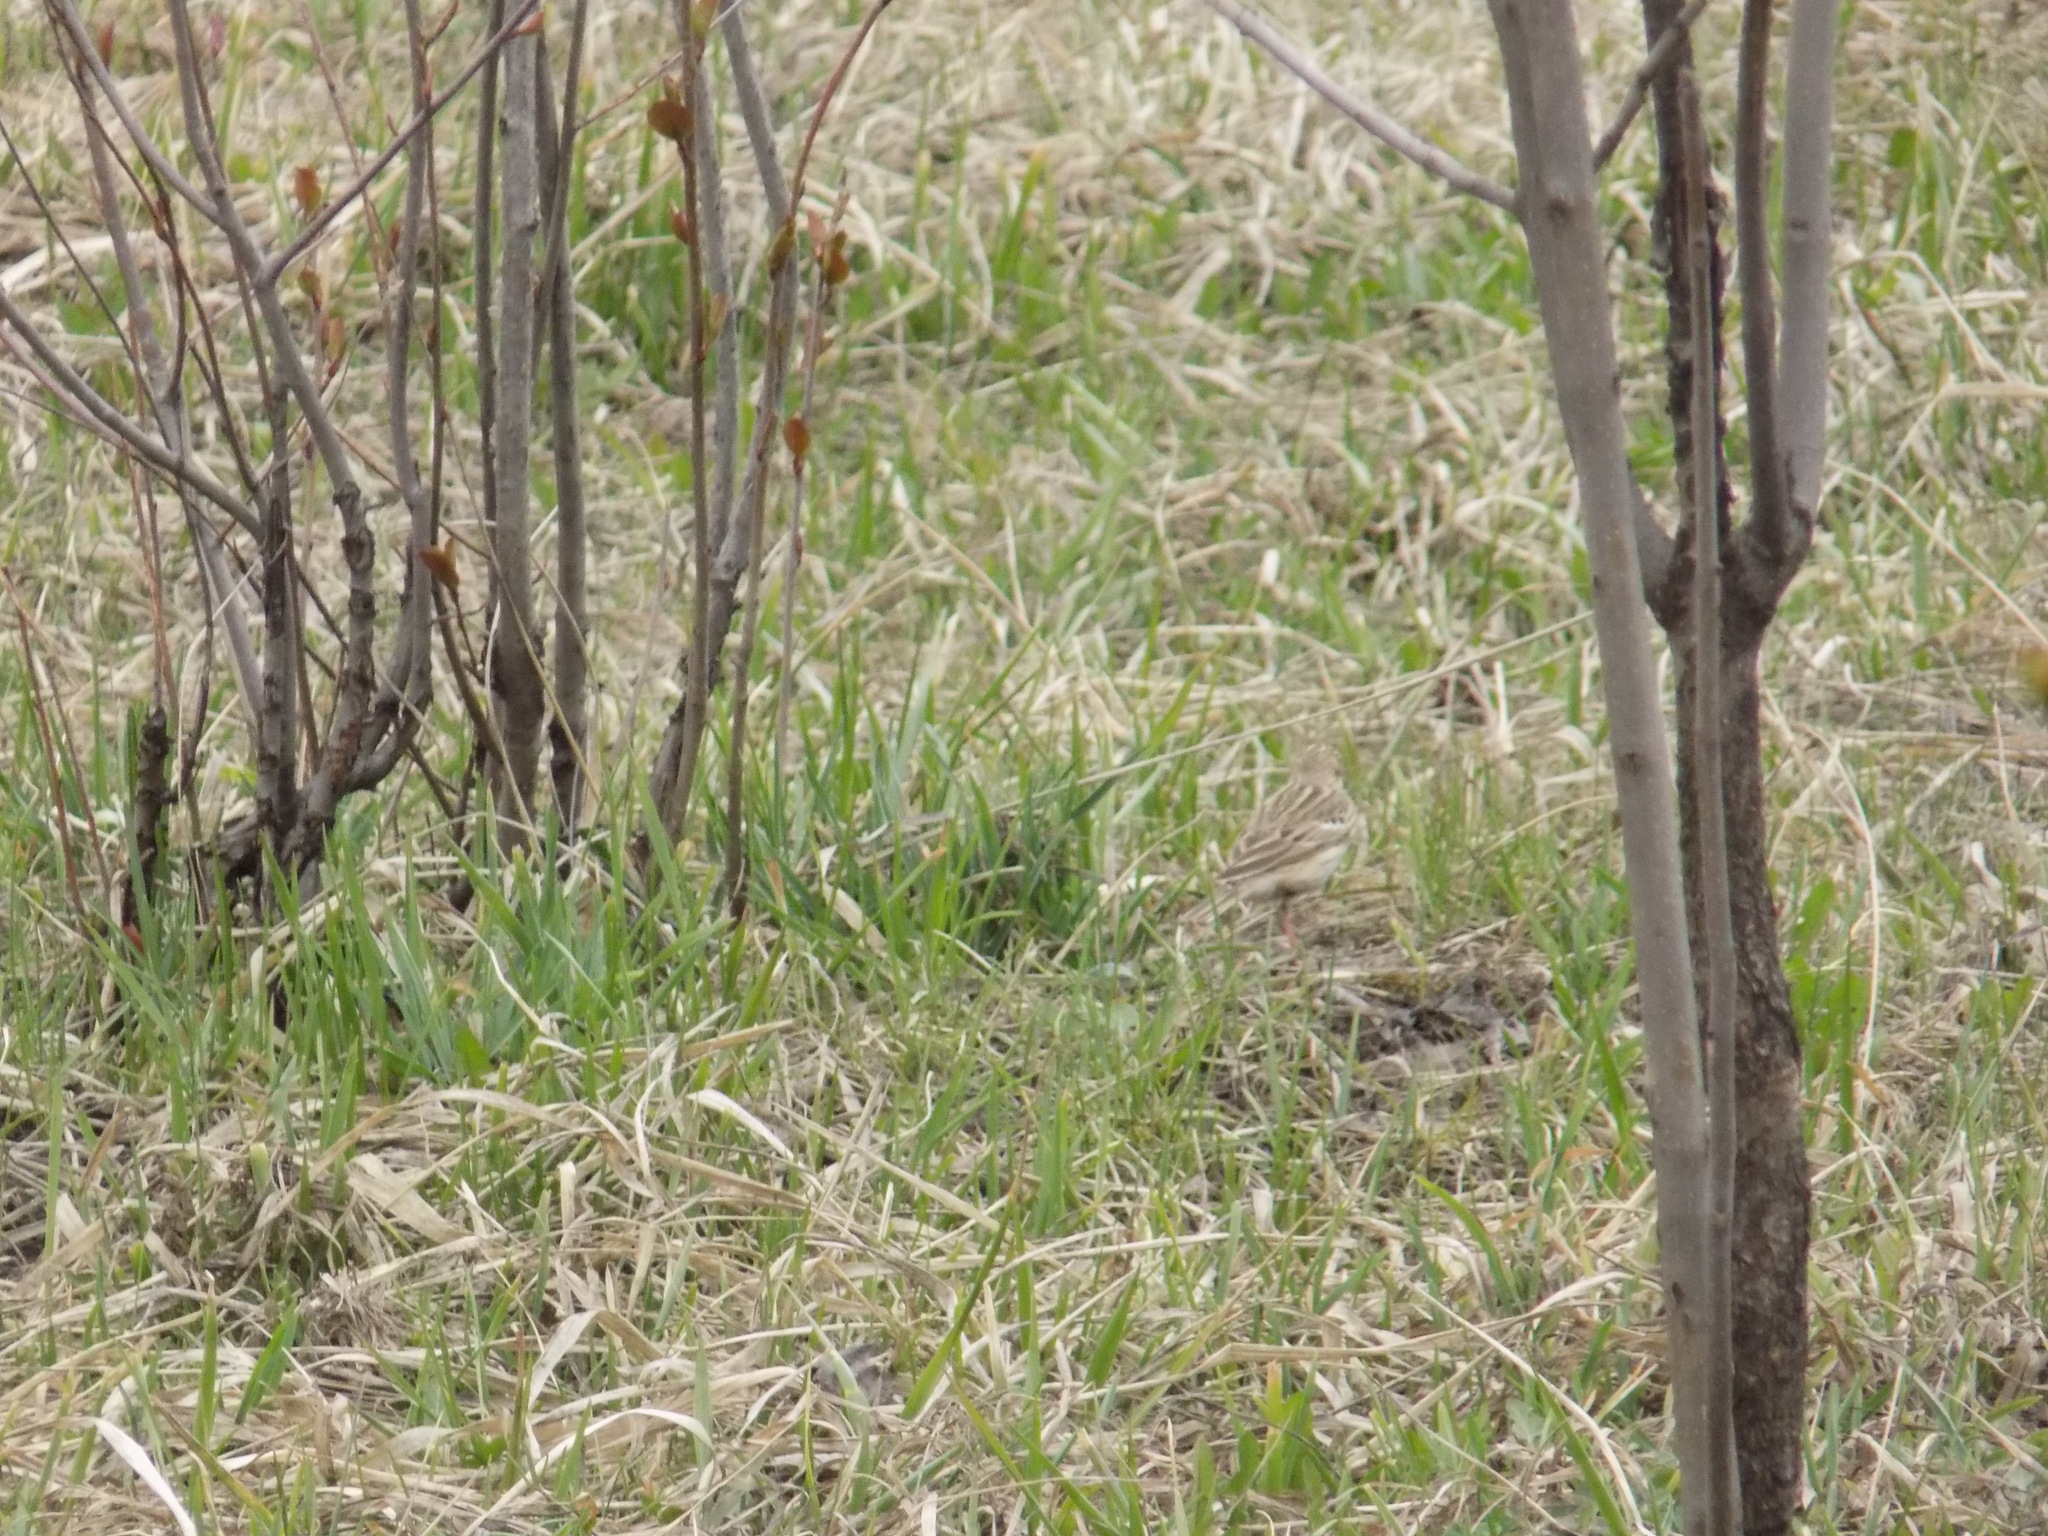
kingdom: Animalia
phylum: Chordata
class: Aves
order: Passeriformes
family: Motacillidae
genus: Anthus
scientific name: Anthus trivialis
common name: Tree pipit
